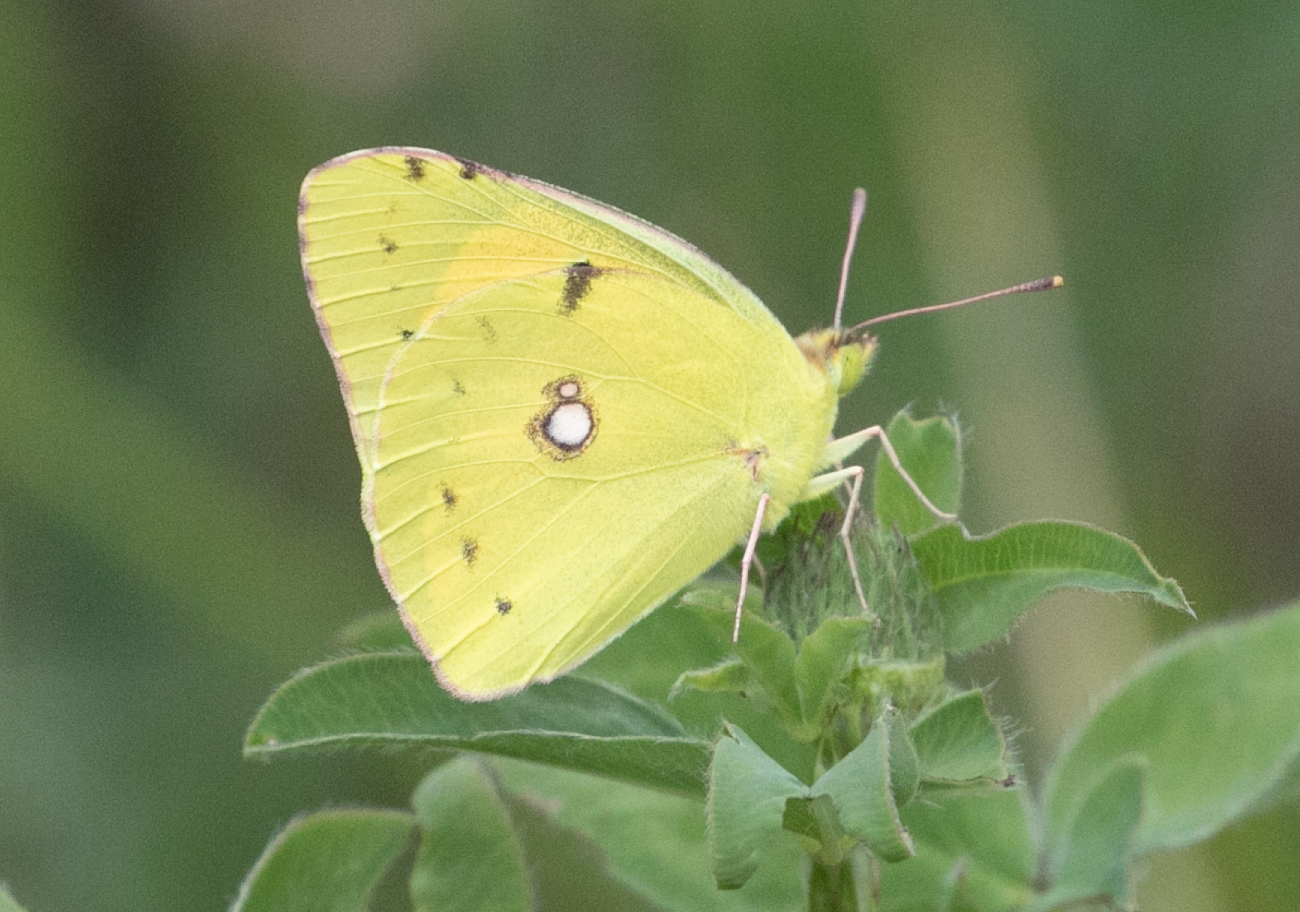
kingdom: Animalia
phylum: Arthropoda
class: Insecta
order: Lepidoptera
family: Pieridae
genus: Colias
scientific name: Colias croceus
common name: Clouded yellow
